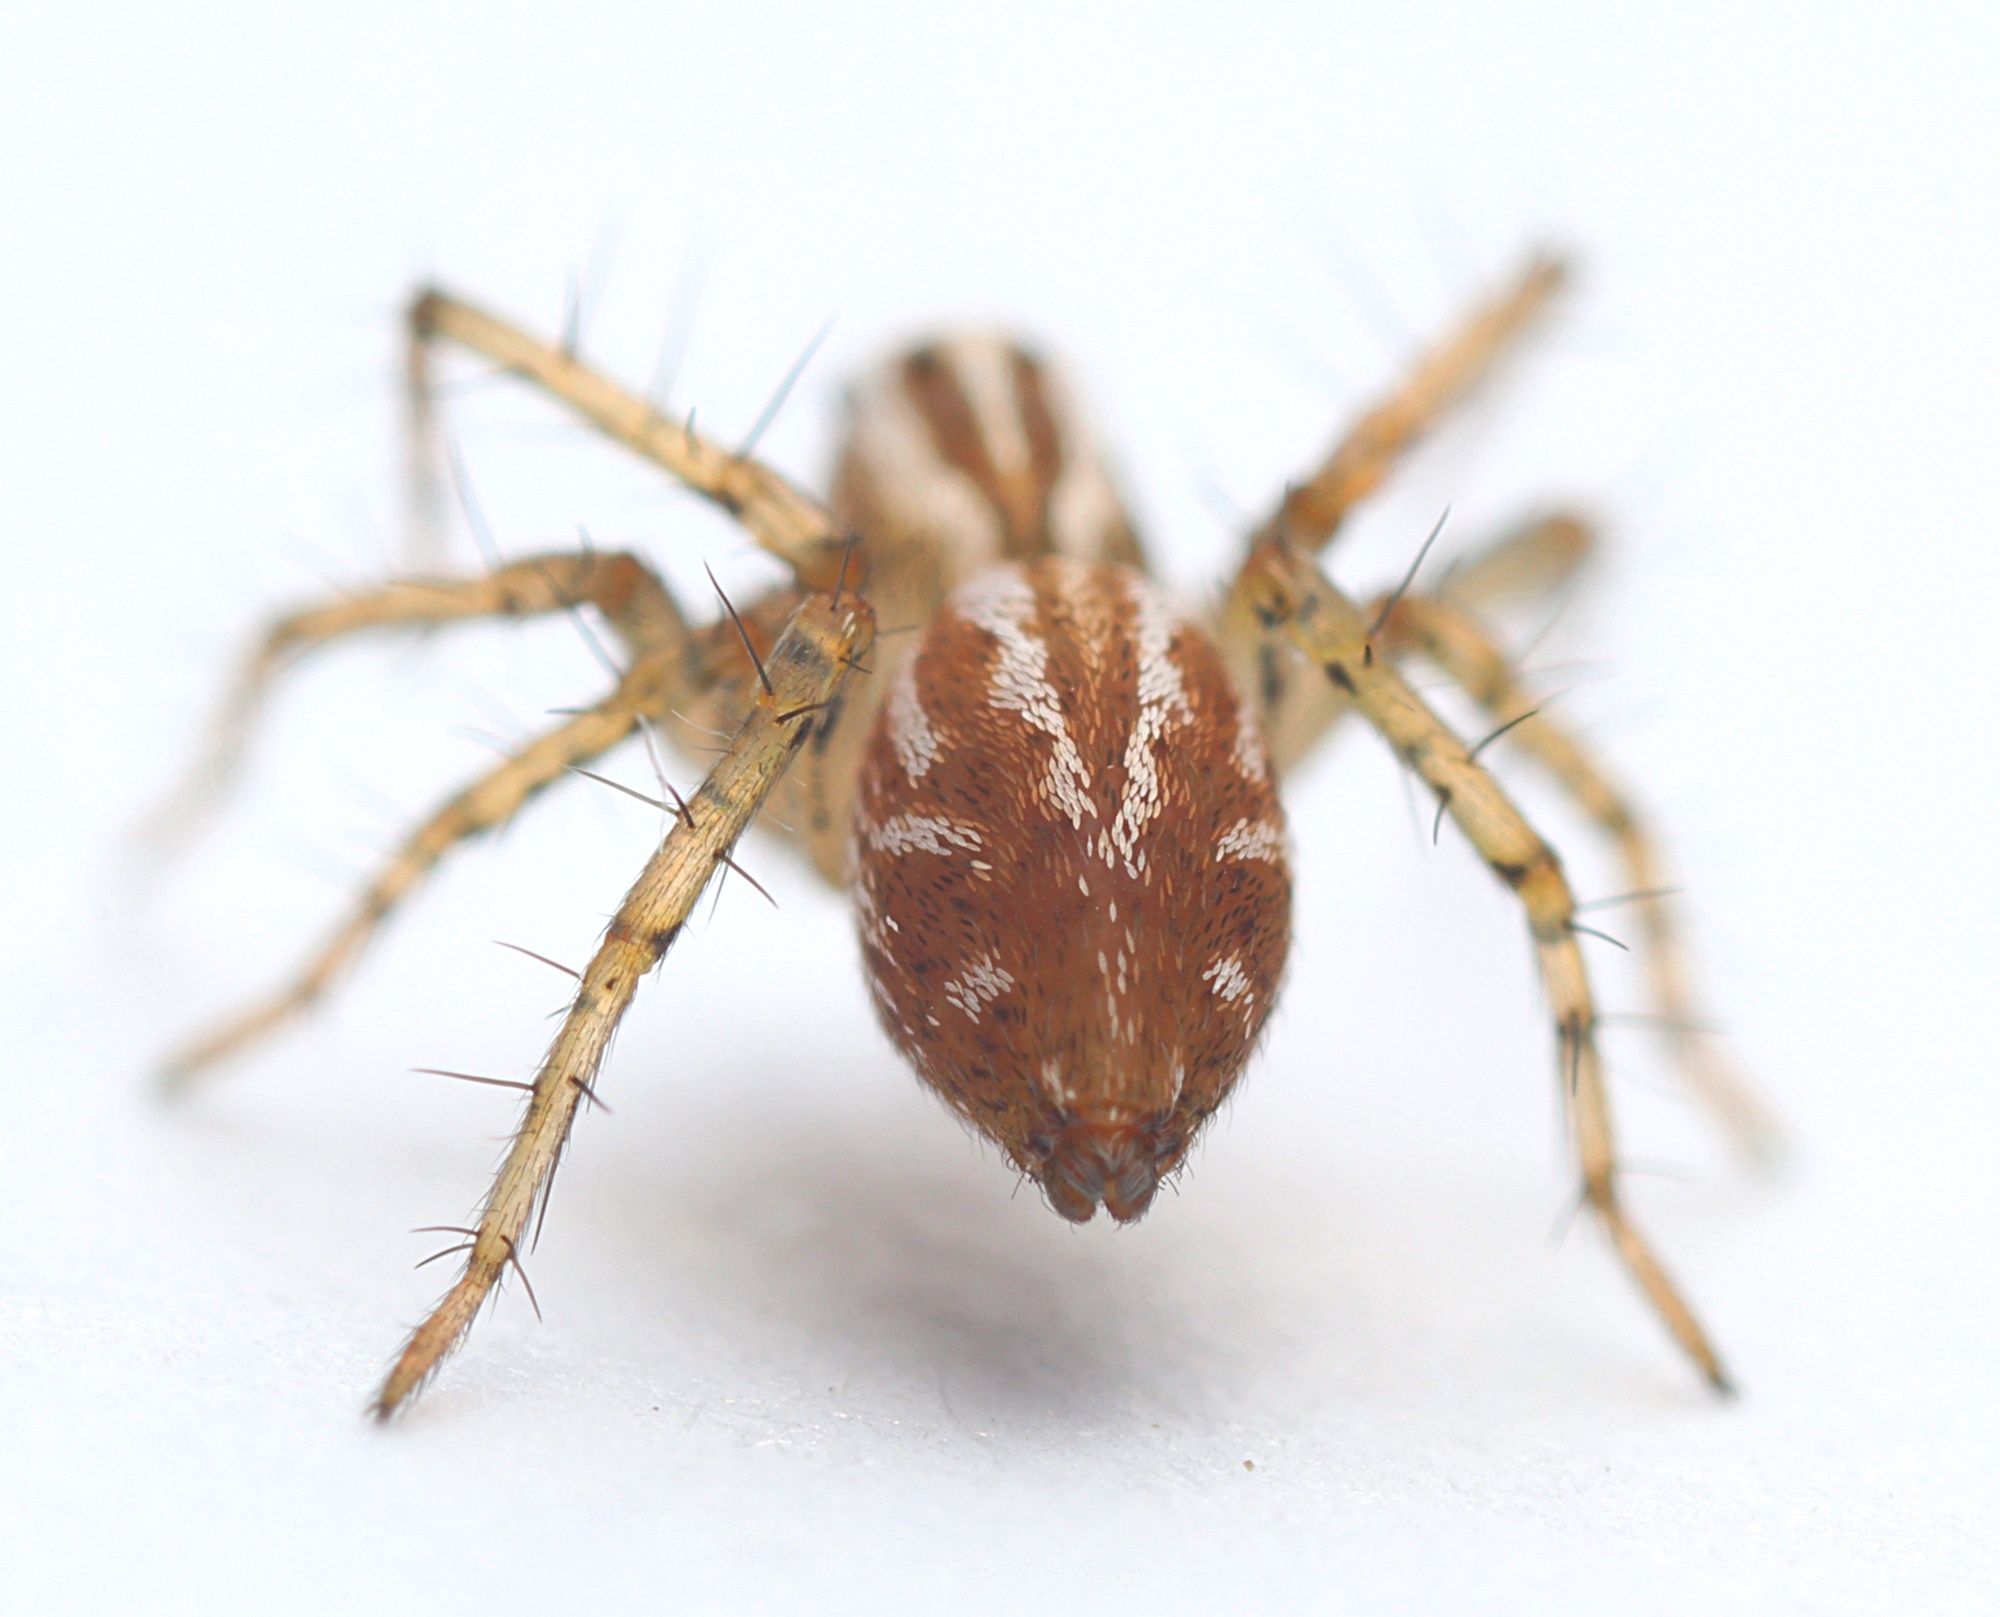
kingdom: Animalia
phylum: Arthropoda
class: Arachnida
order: Araneae
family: Oxyopidae
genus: Oxyopes
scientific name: Oxyopes gracilipes
